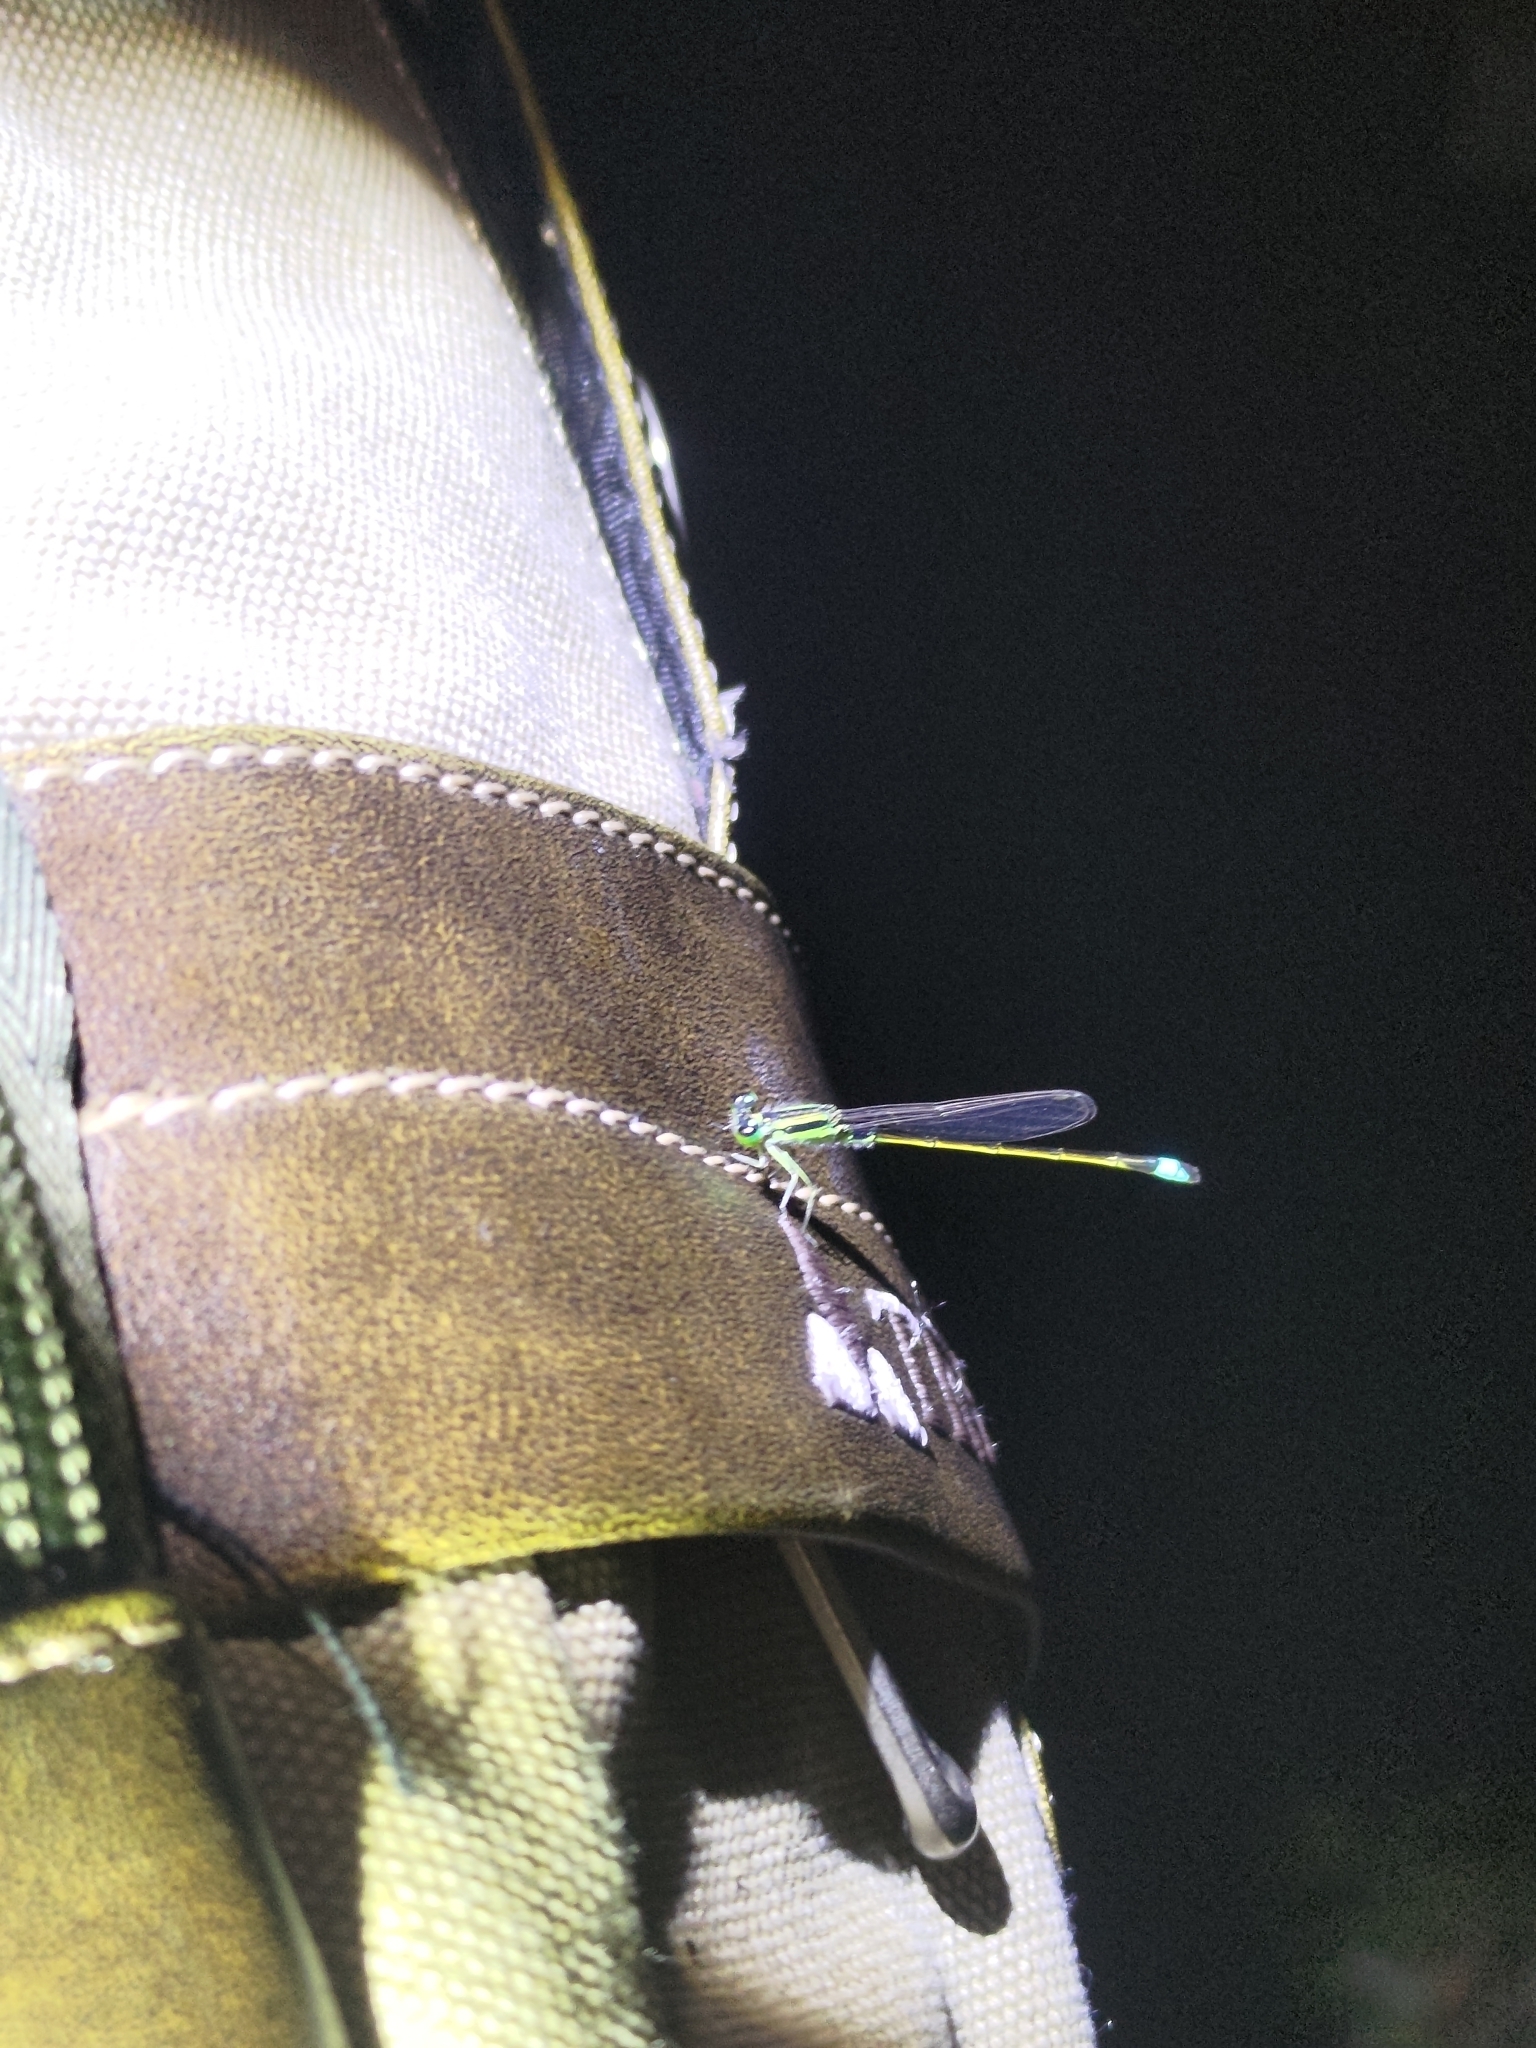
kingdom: Animalia
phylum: Arthropoda
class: Insecta
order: Odonata
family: Coenagrionidae
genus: Ischnura
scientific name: Ischnura senegalensis
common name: Tropical bluetail
